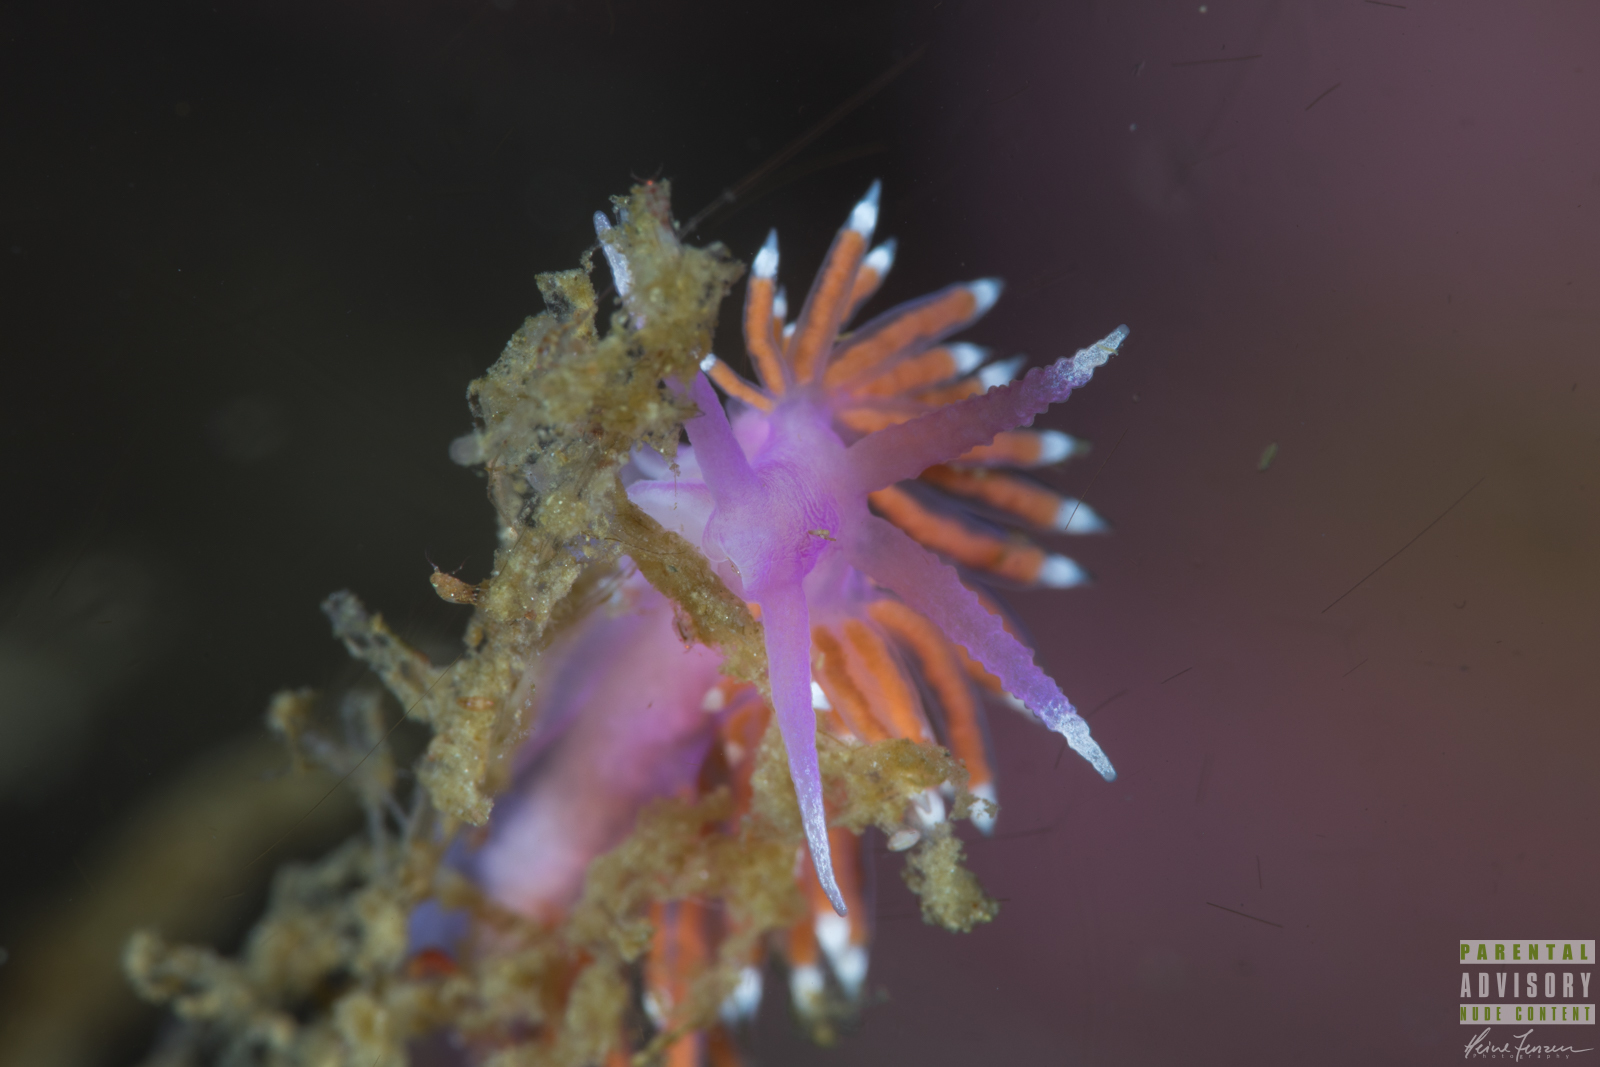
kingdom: Animalia
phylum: Mollusca
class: Gastropoda
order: Nudibranchia
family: Flabellinidae
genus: Edmundsella
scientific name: Edmundsella pedata
